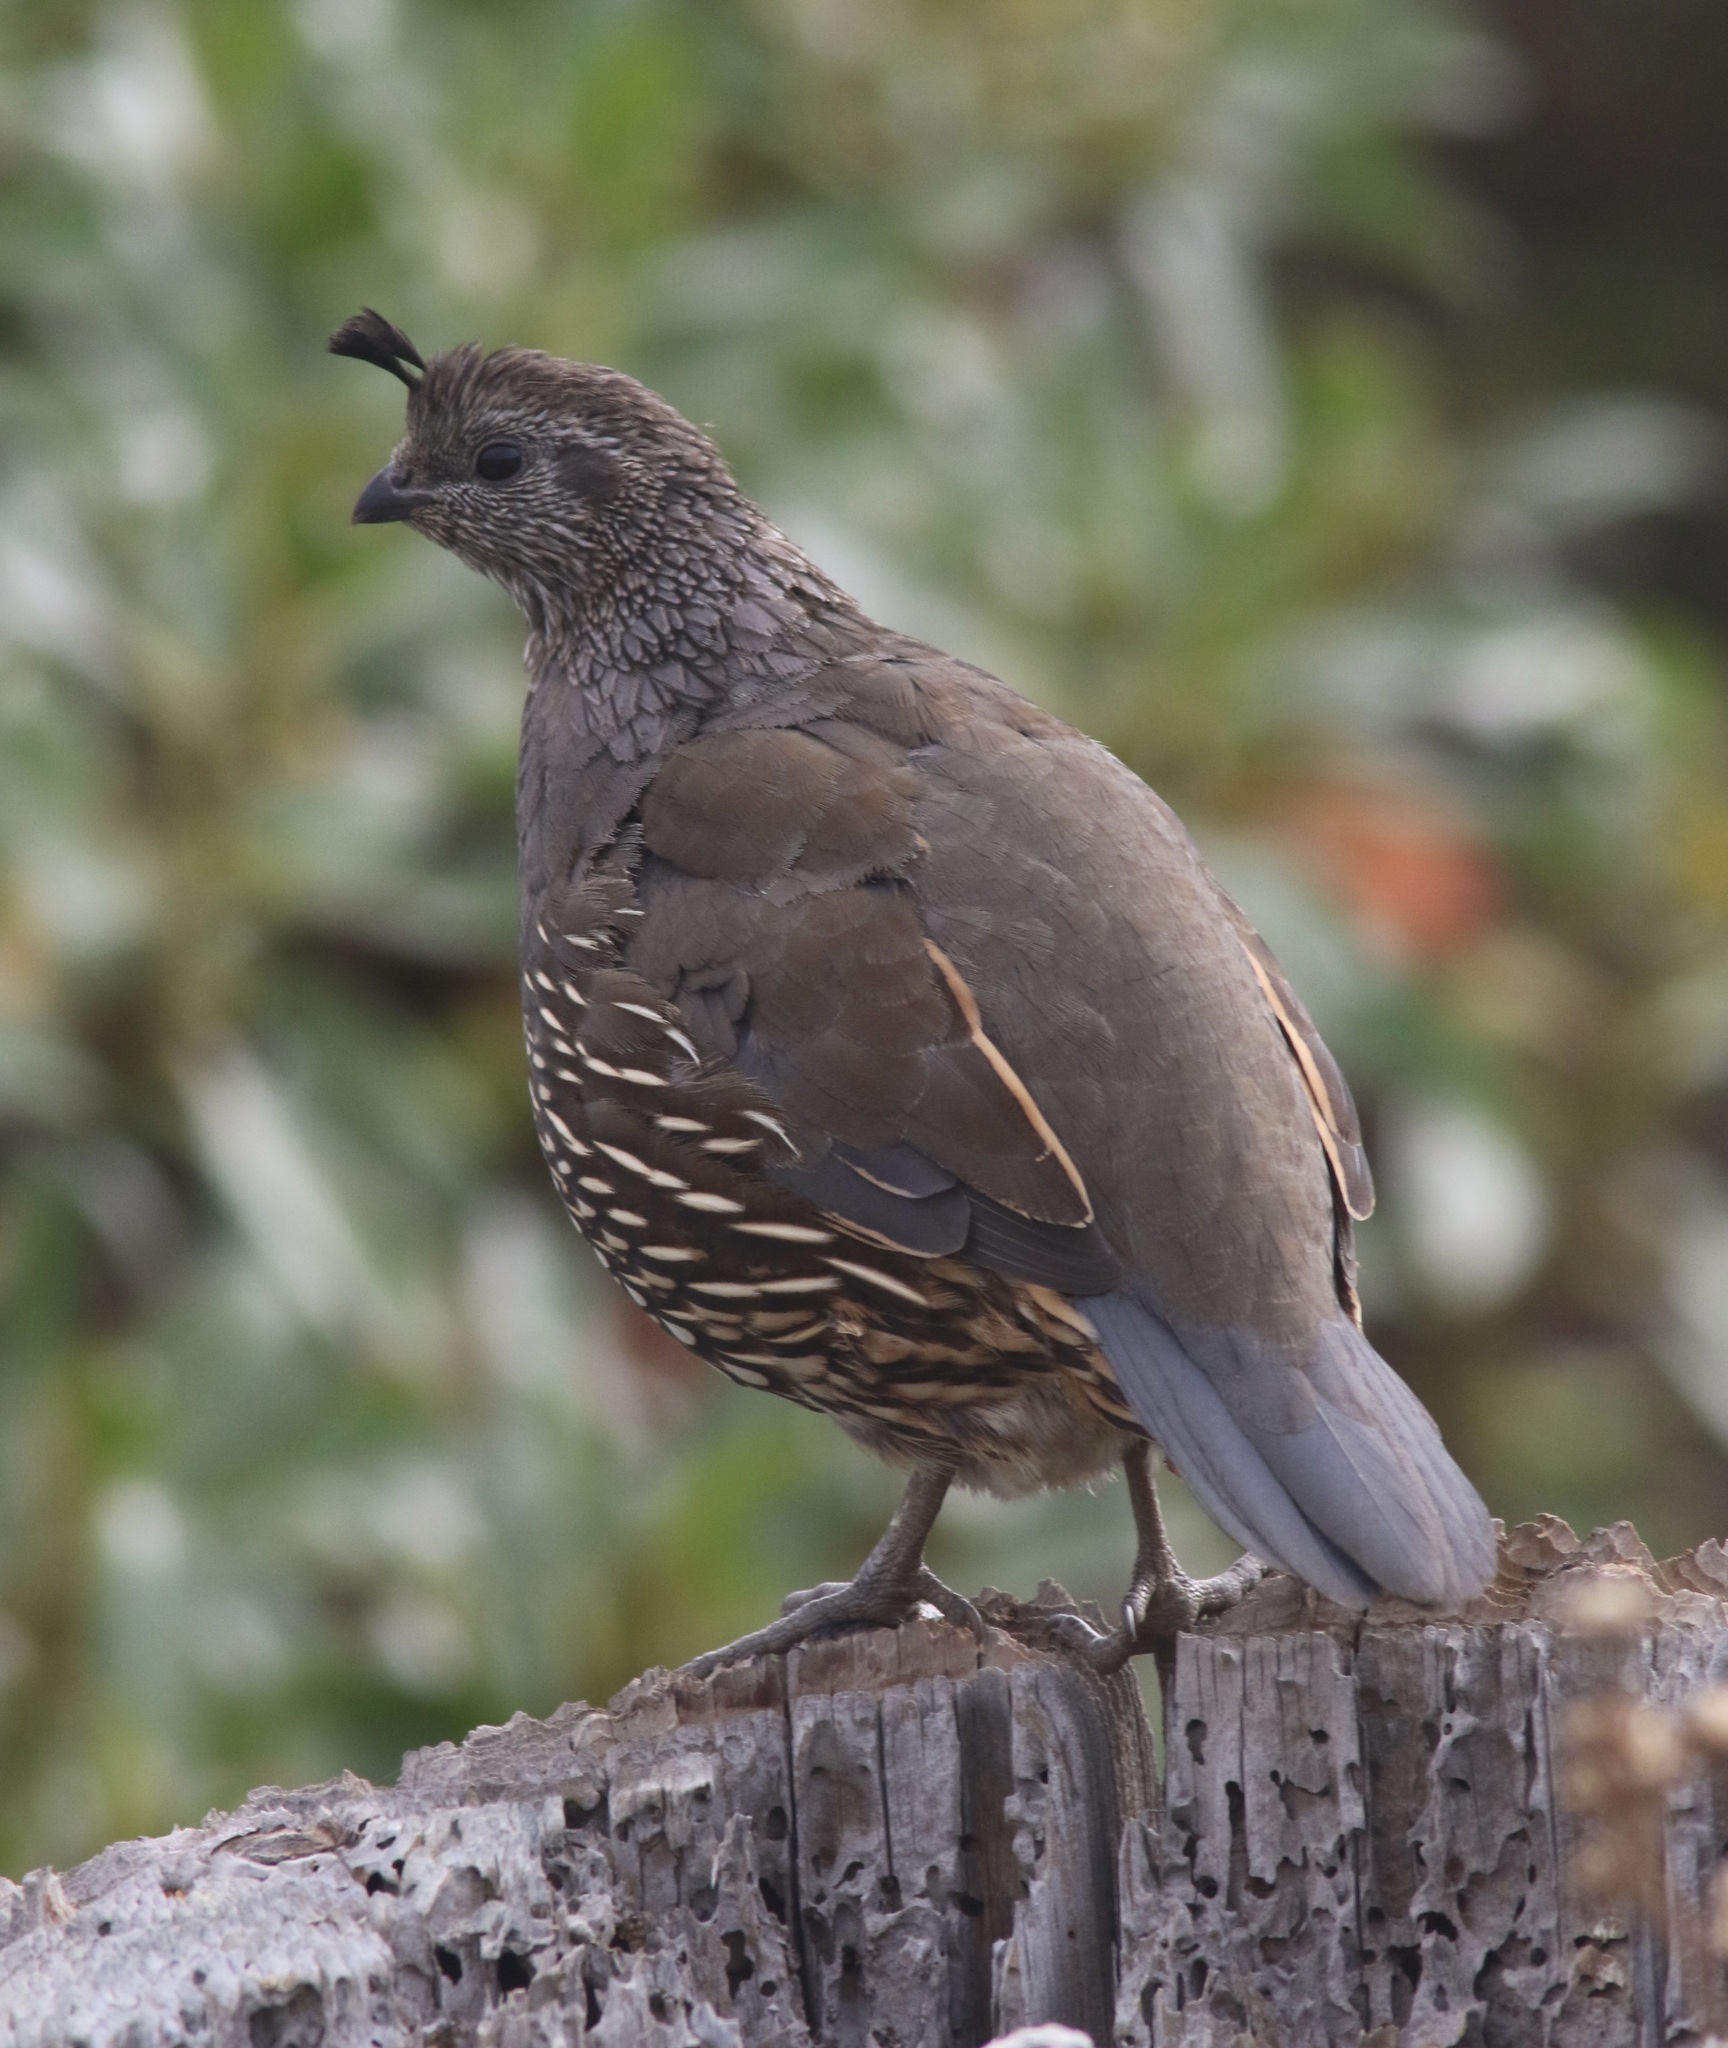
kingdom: Animalia
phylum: Chordata
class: Aves
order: Galliformes
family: Odontophoridae
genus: Callipepla
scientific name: Callipepla californica
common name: California quail
